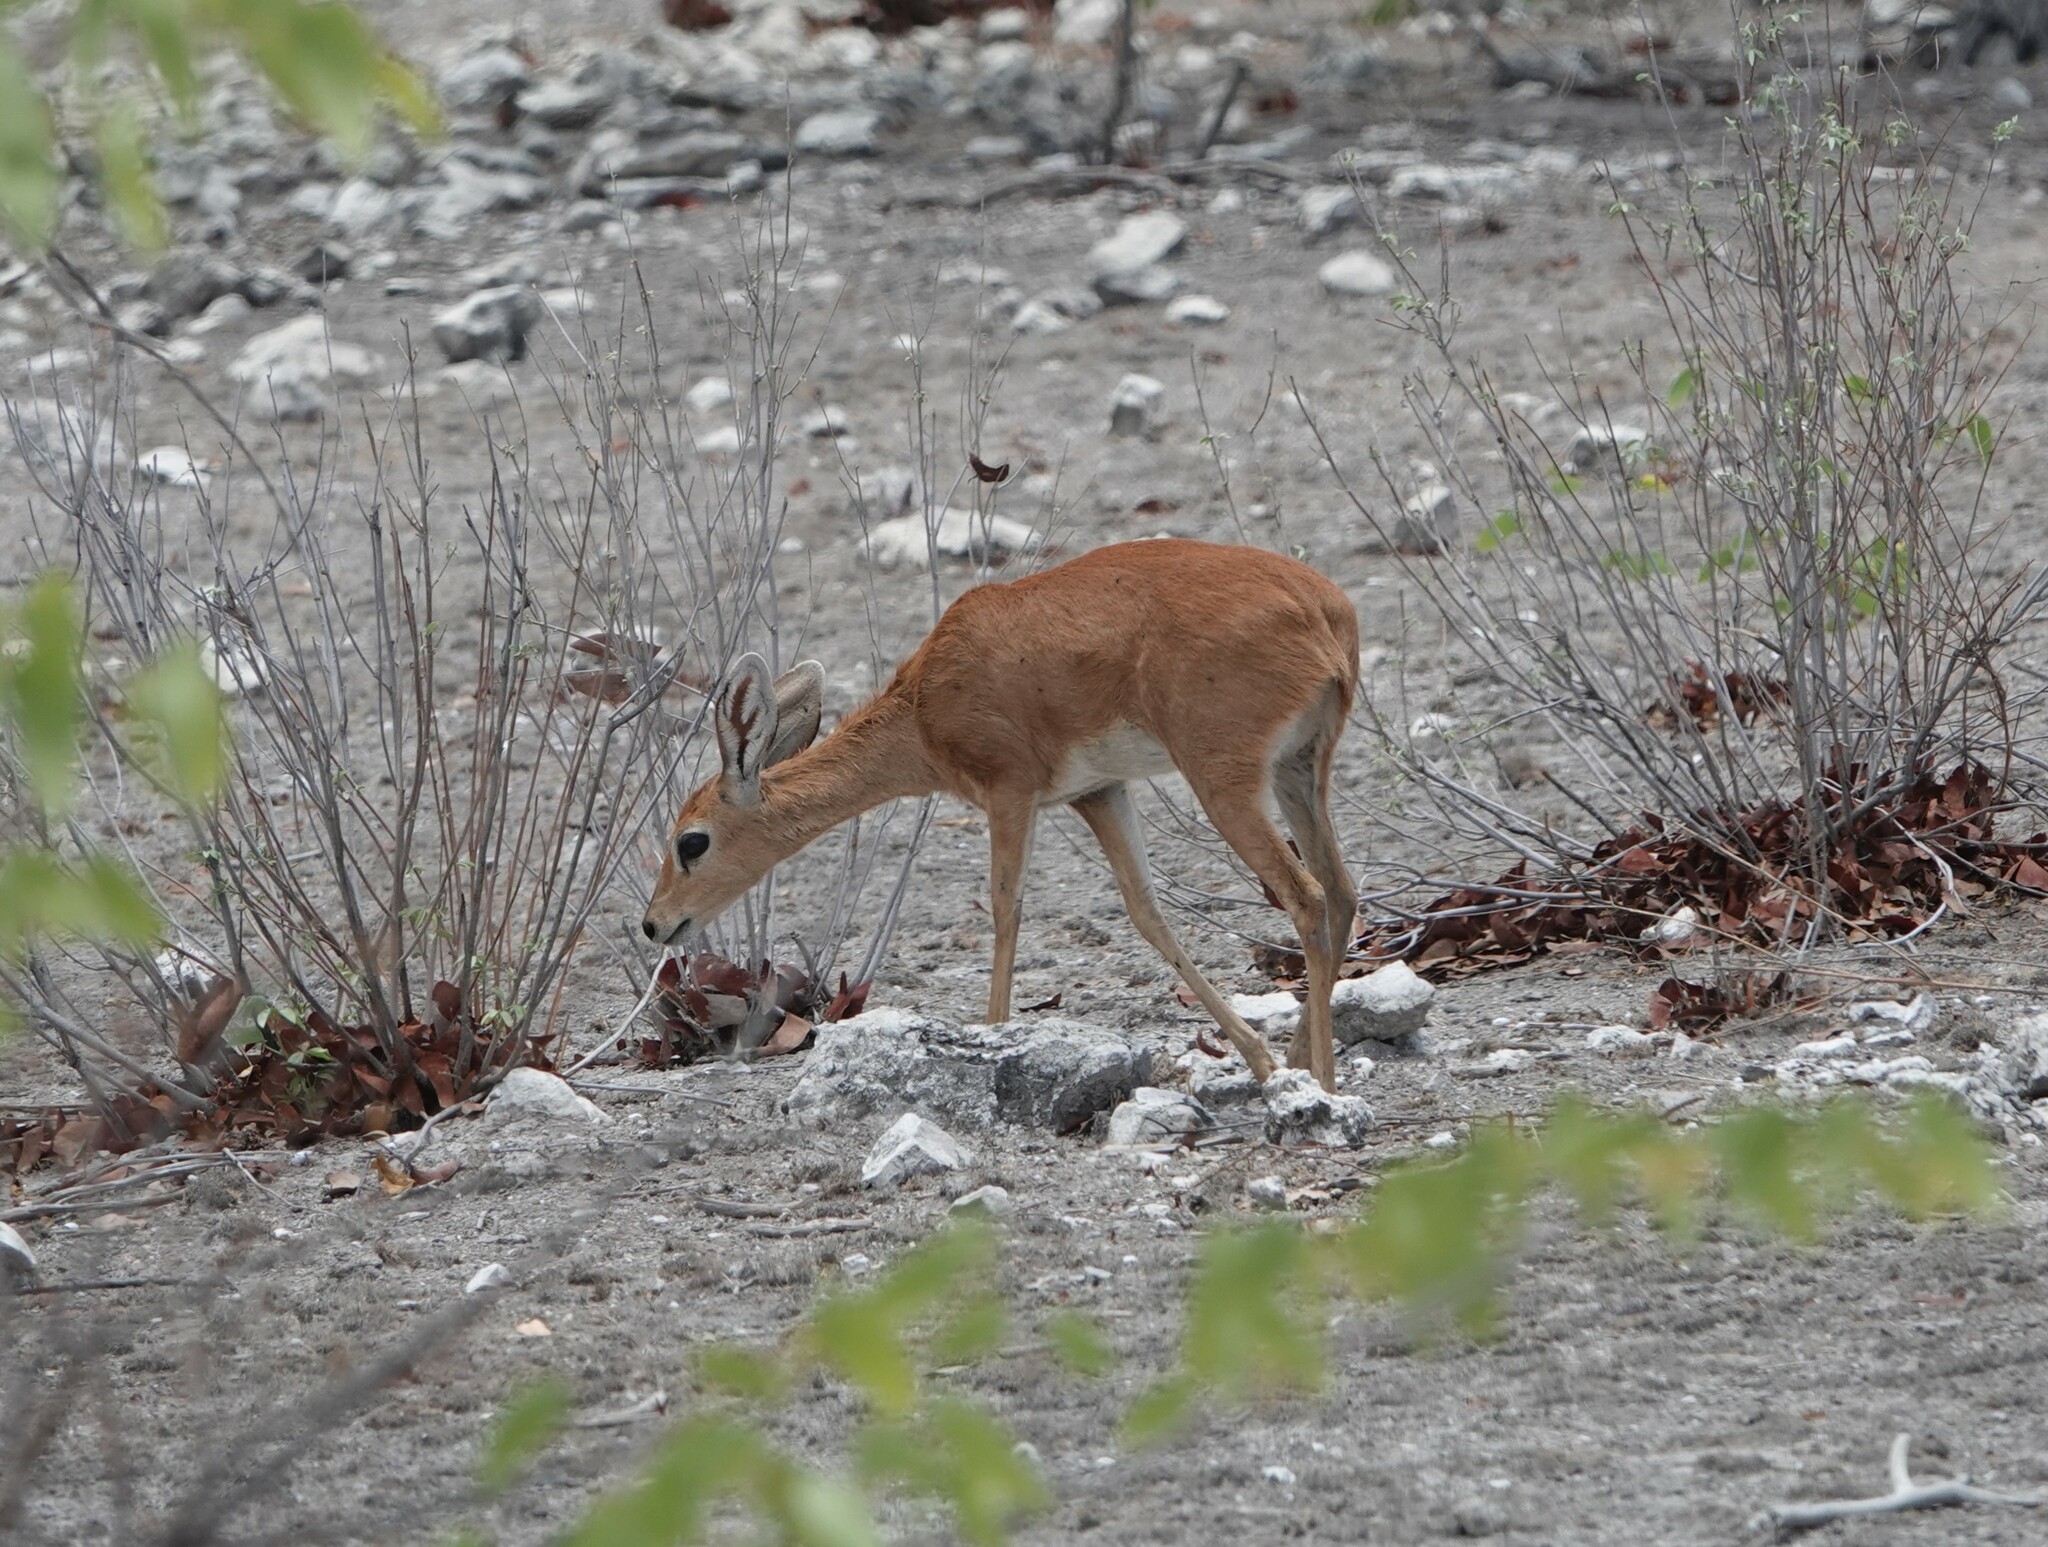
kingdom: Animalia
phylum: Chordata
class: Mammalia
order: Artiodactyla
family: Bovidae
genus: Raphicerus
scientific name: Raphicerus campestris
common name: Steenbok
